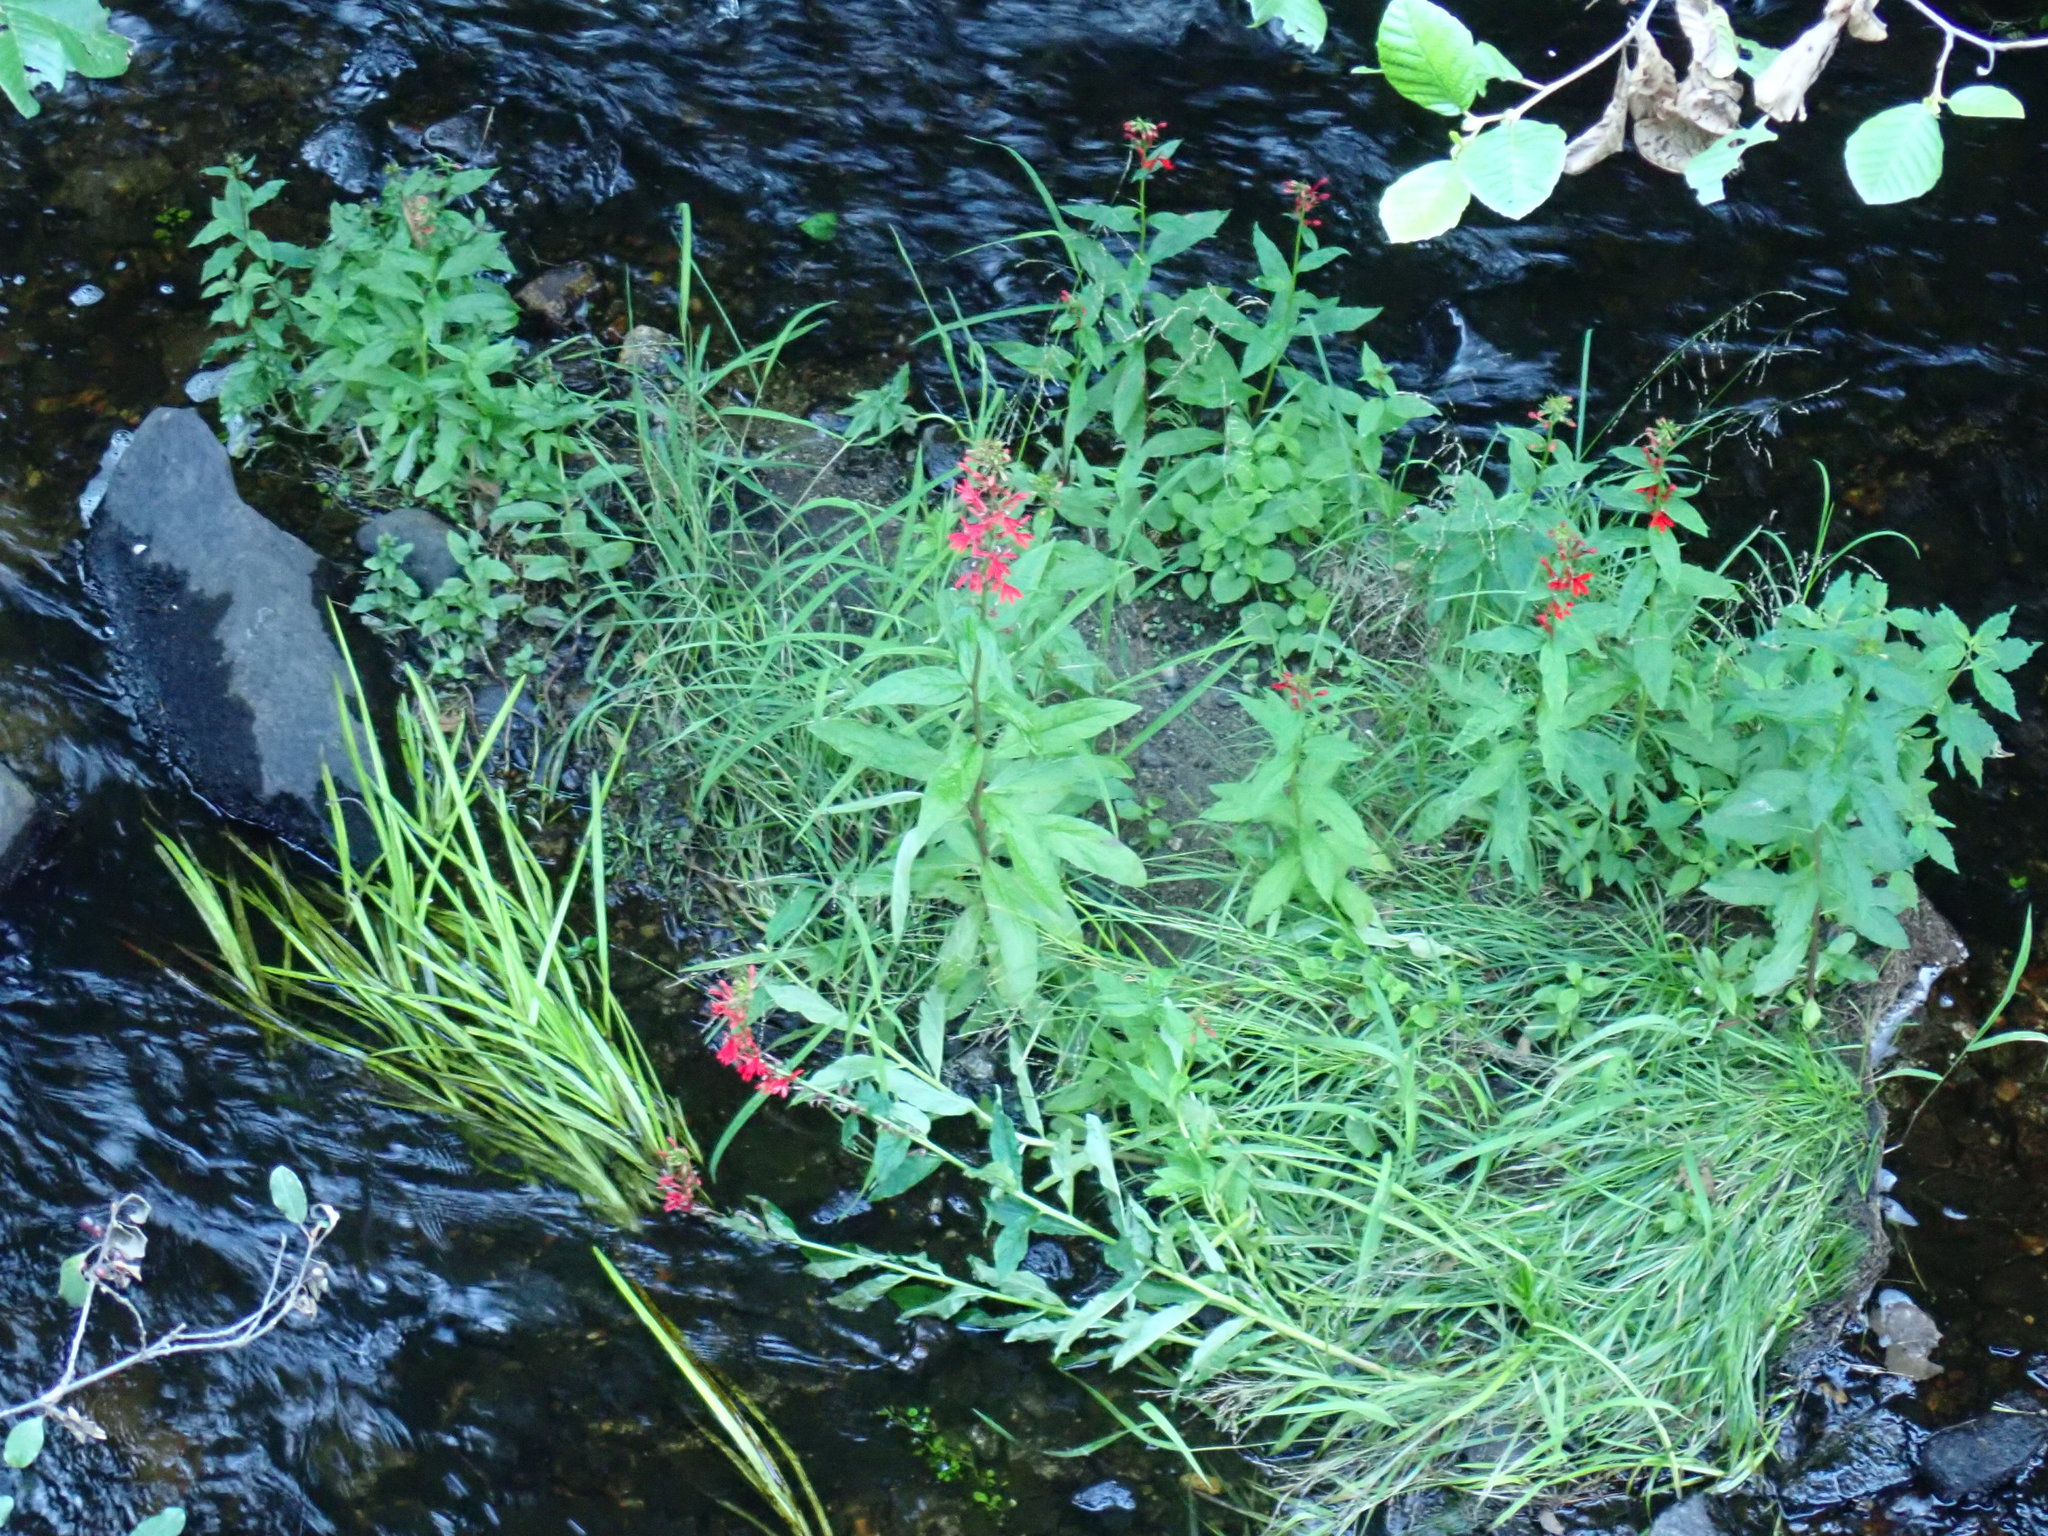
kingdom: Plantae
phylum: Tracheophyta
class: Magnoliopsida
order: Asterales
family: Campanulaceae
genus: Lobelia
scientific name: Lobelia cardinalis
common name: Cardinal flower
